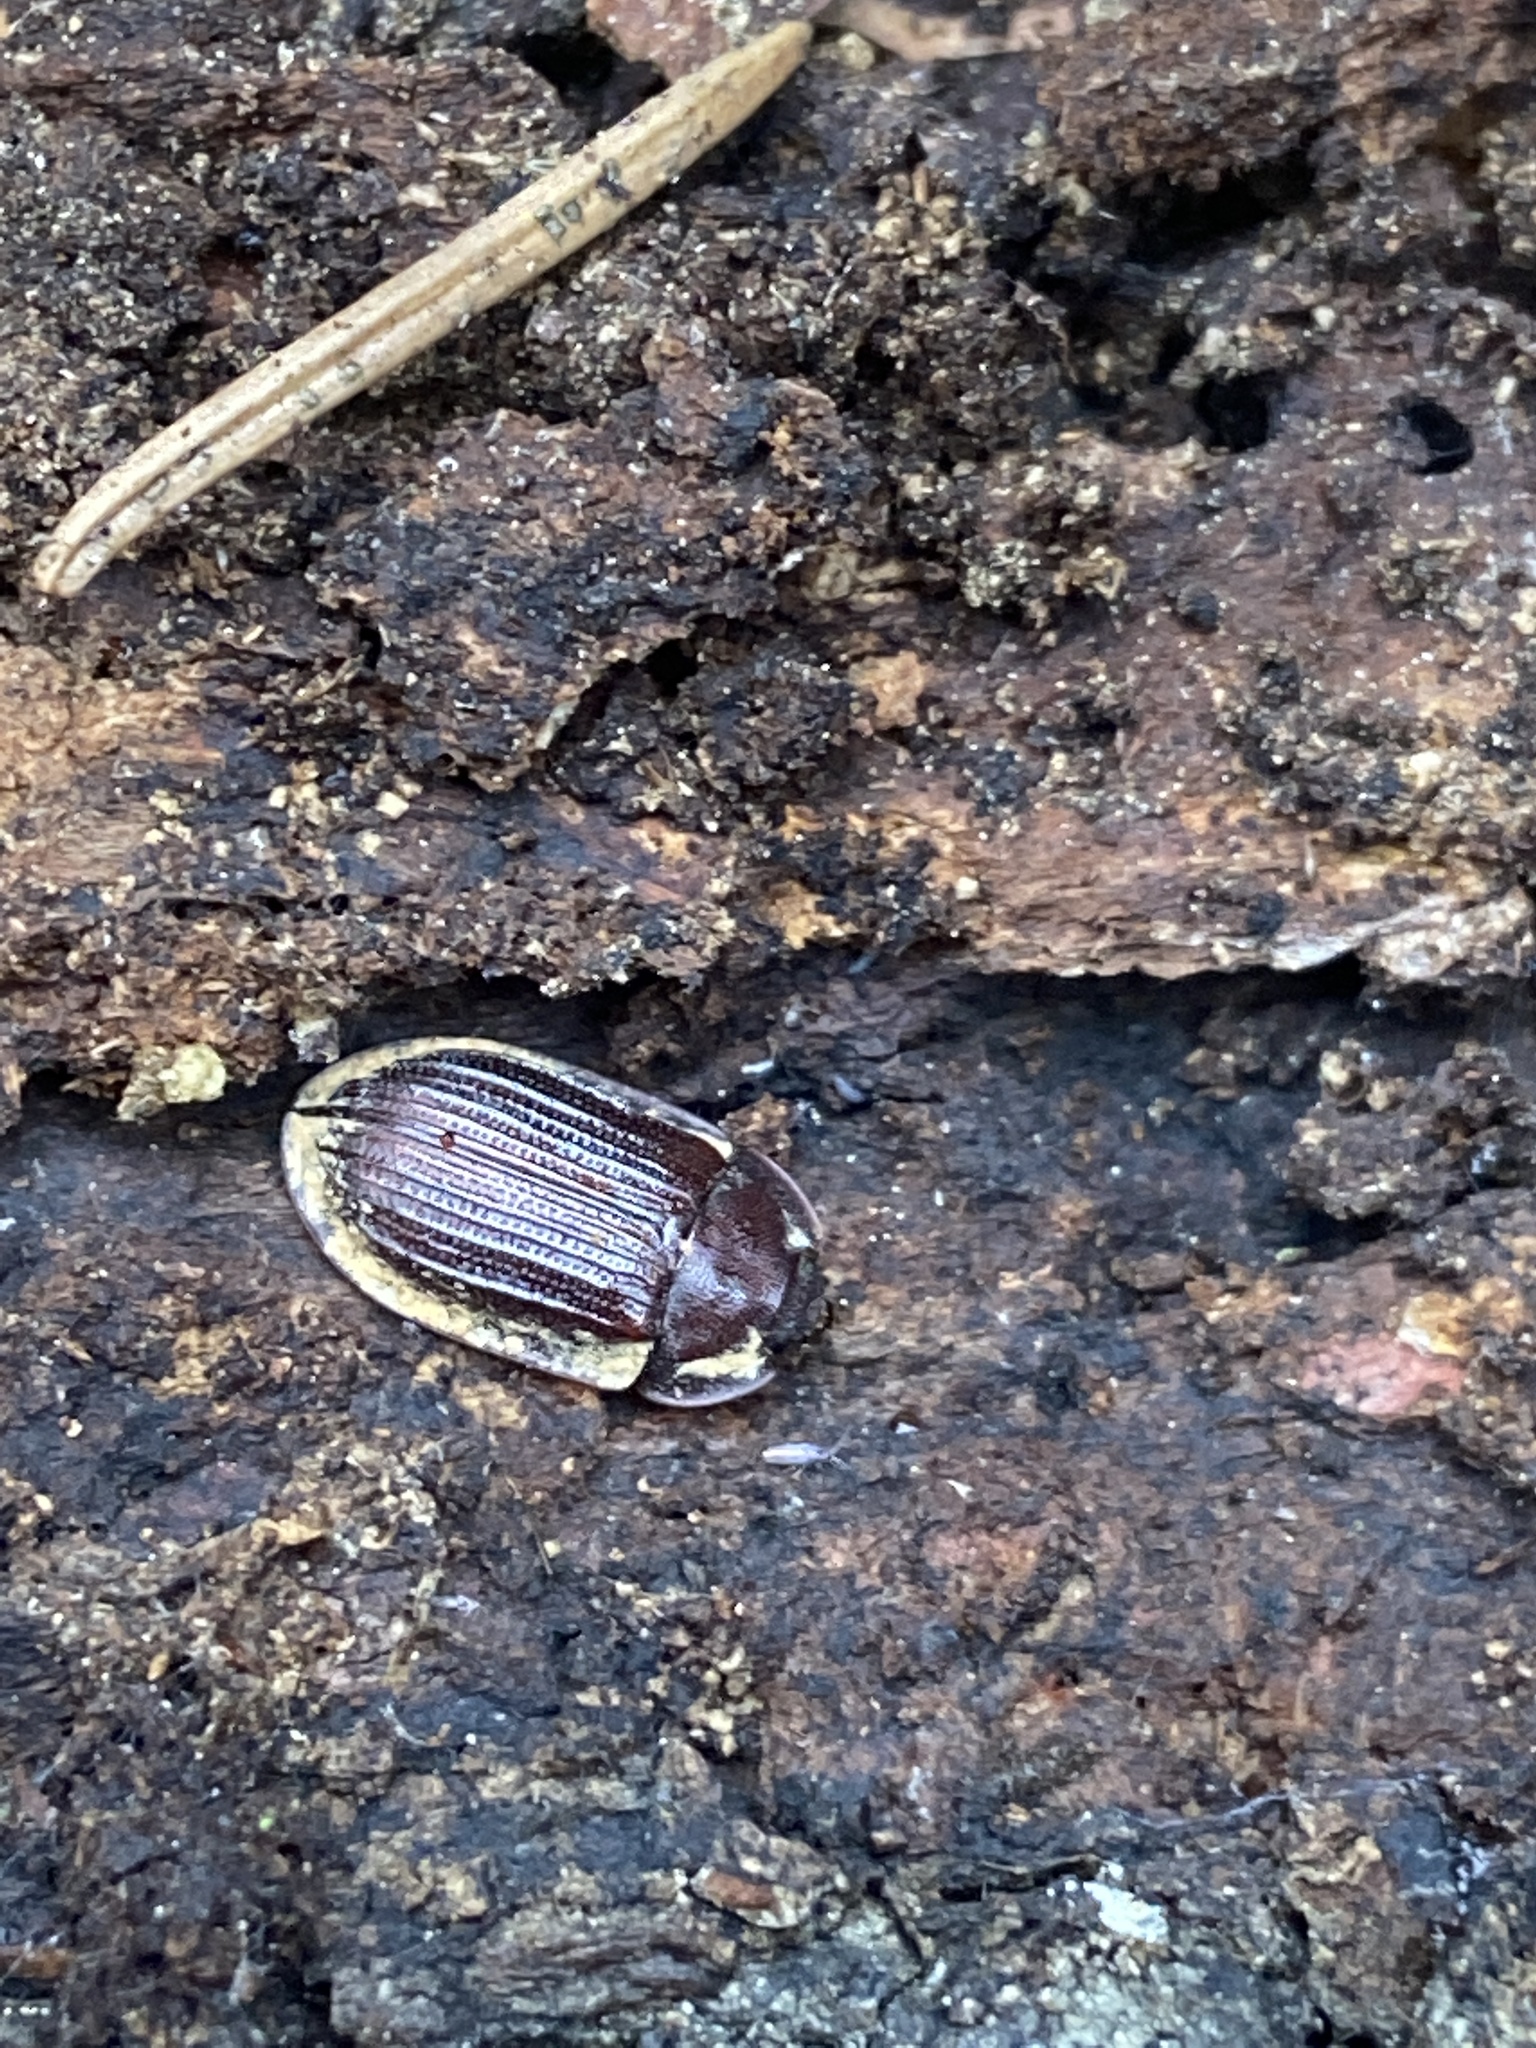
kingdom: Animalia
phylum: Arthropoda
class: Insecta
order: Coleoptera
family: Trogossitidae
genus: Peltis
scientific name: Peltis ferruginea
